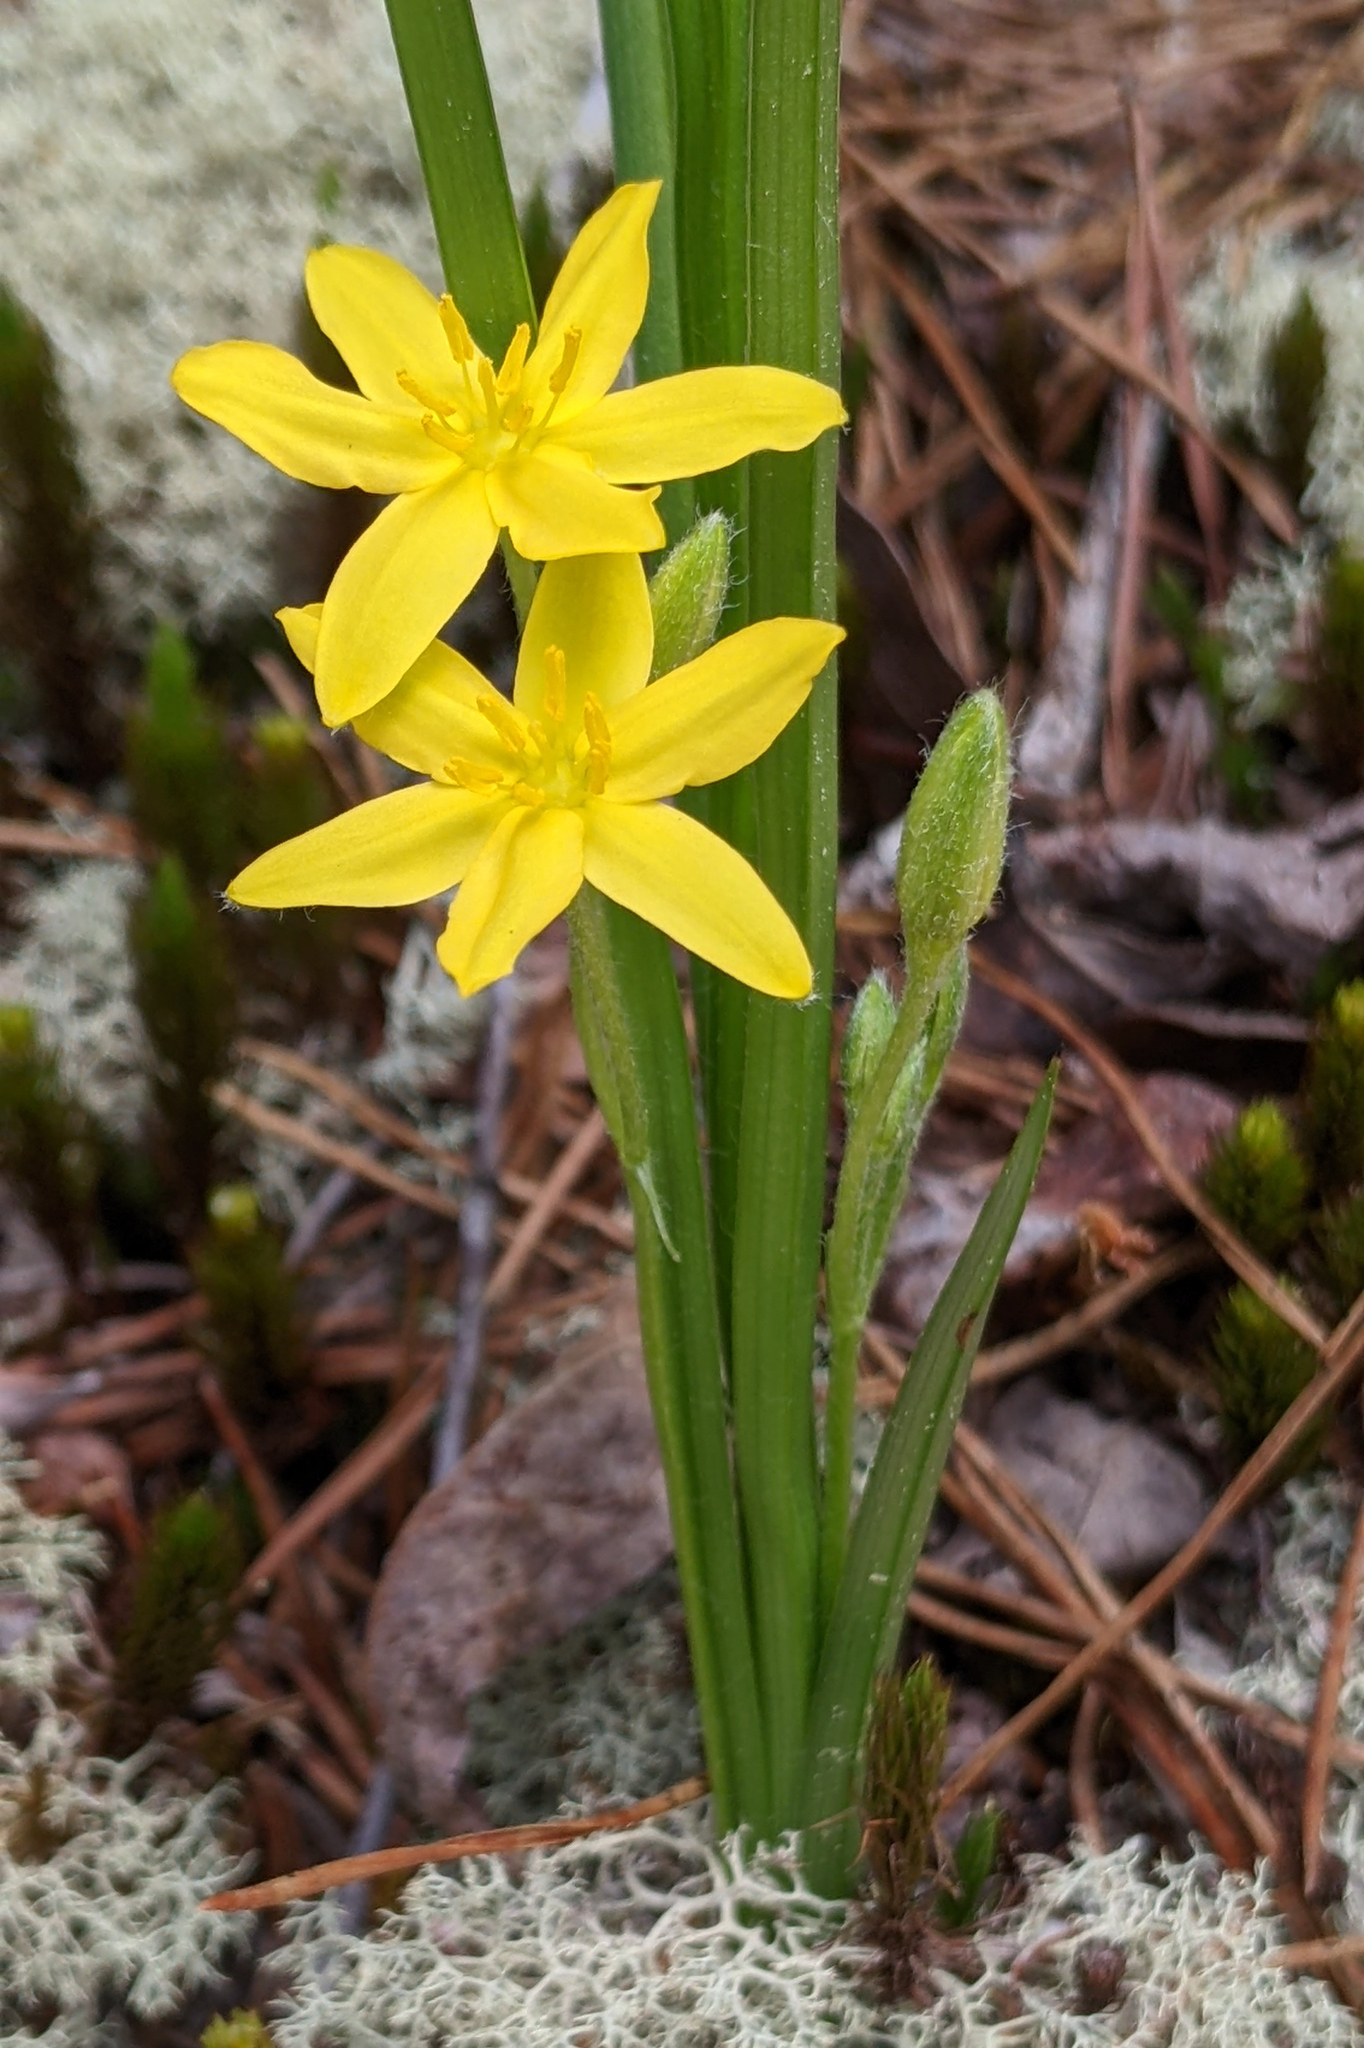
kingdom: Plantae
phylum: Tracheophyta
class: Liliopsida
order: Asparagales
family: Hypoxidaceae
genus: Hypoxis
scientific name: Hypoxis hirsuta
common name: Common goldstar
